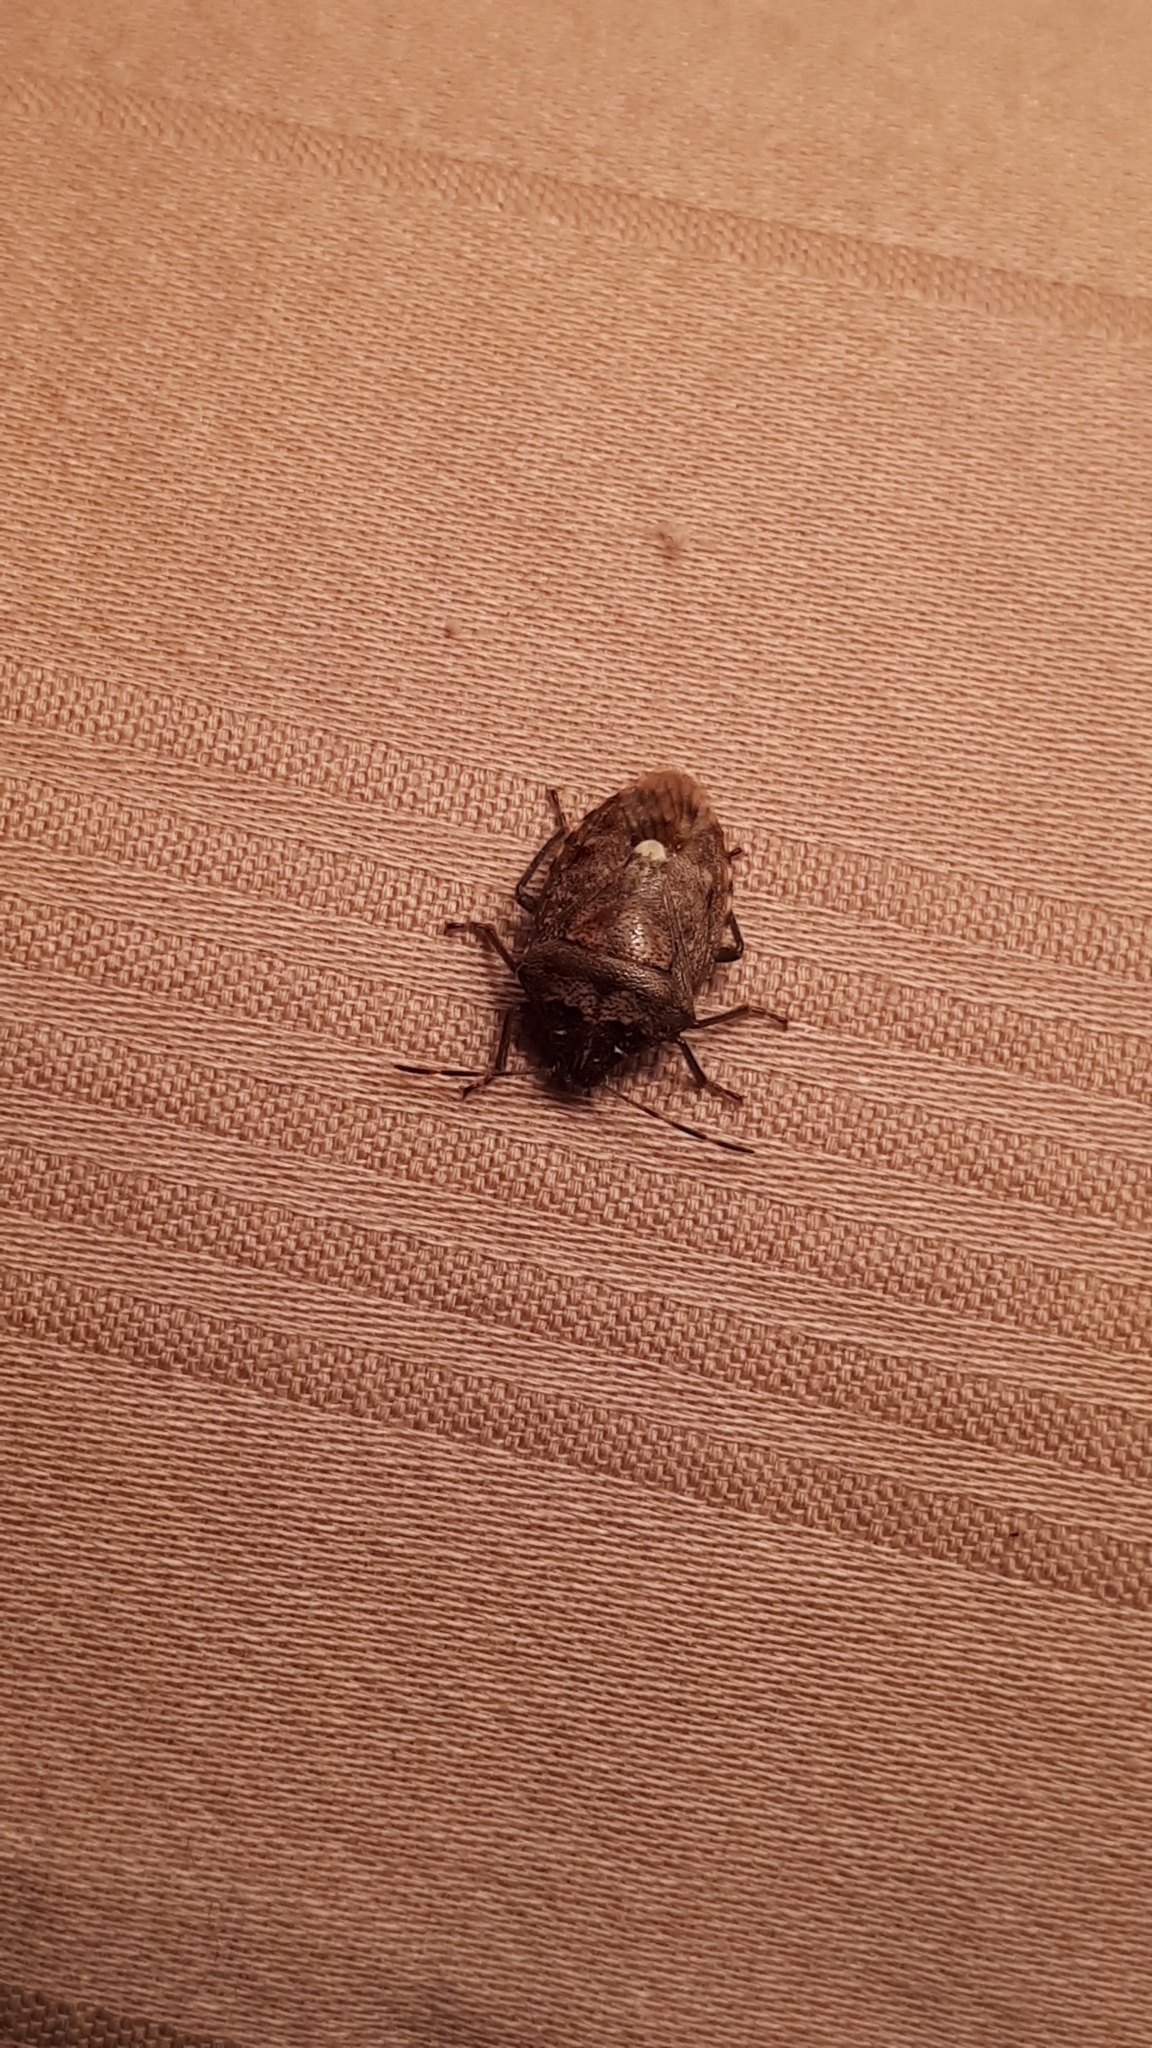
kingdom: Animalia
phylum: Arthropoda
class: Insecta
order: Hemiptera
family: Pentatomidae
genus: Banasa
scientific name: Banasa sordida
